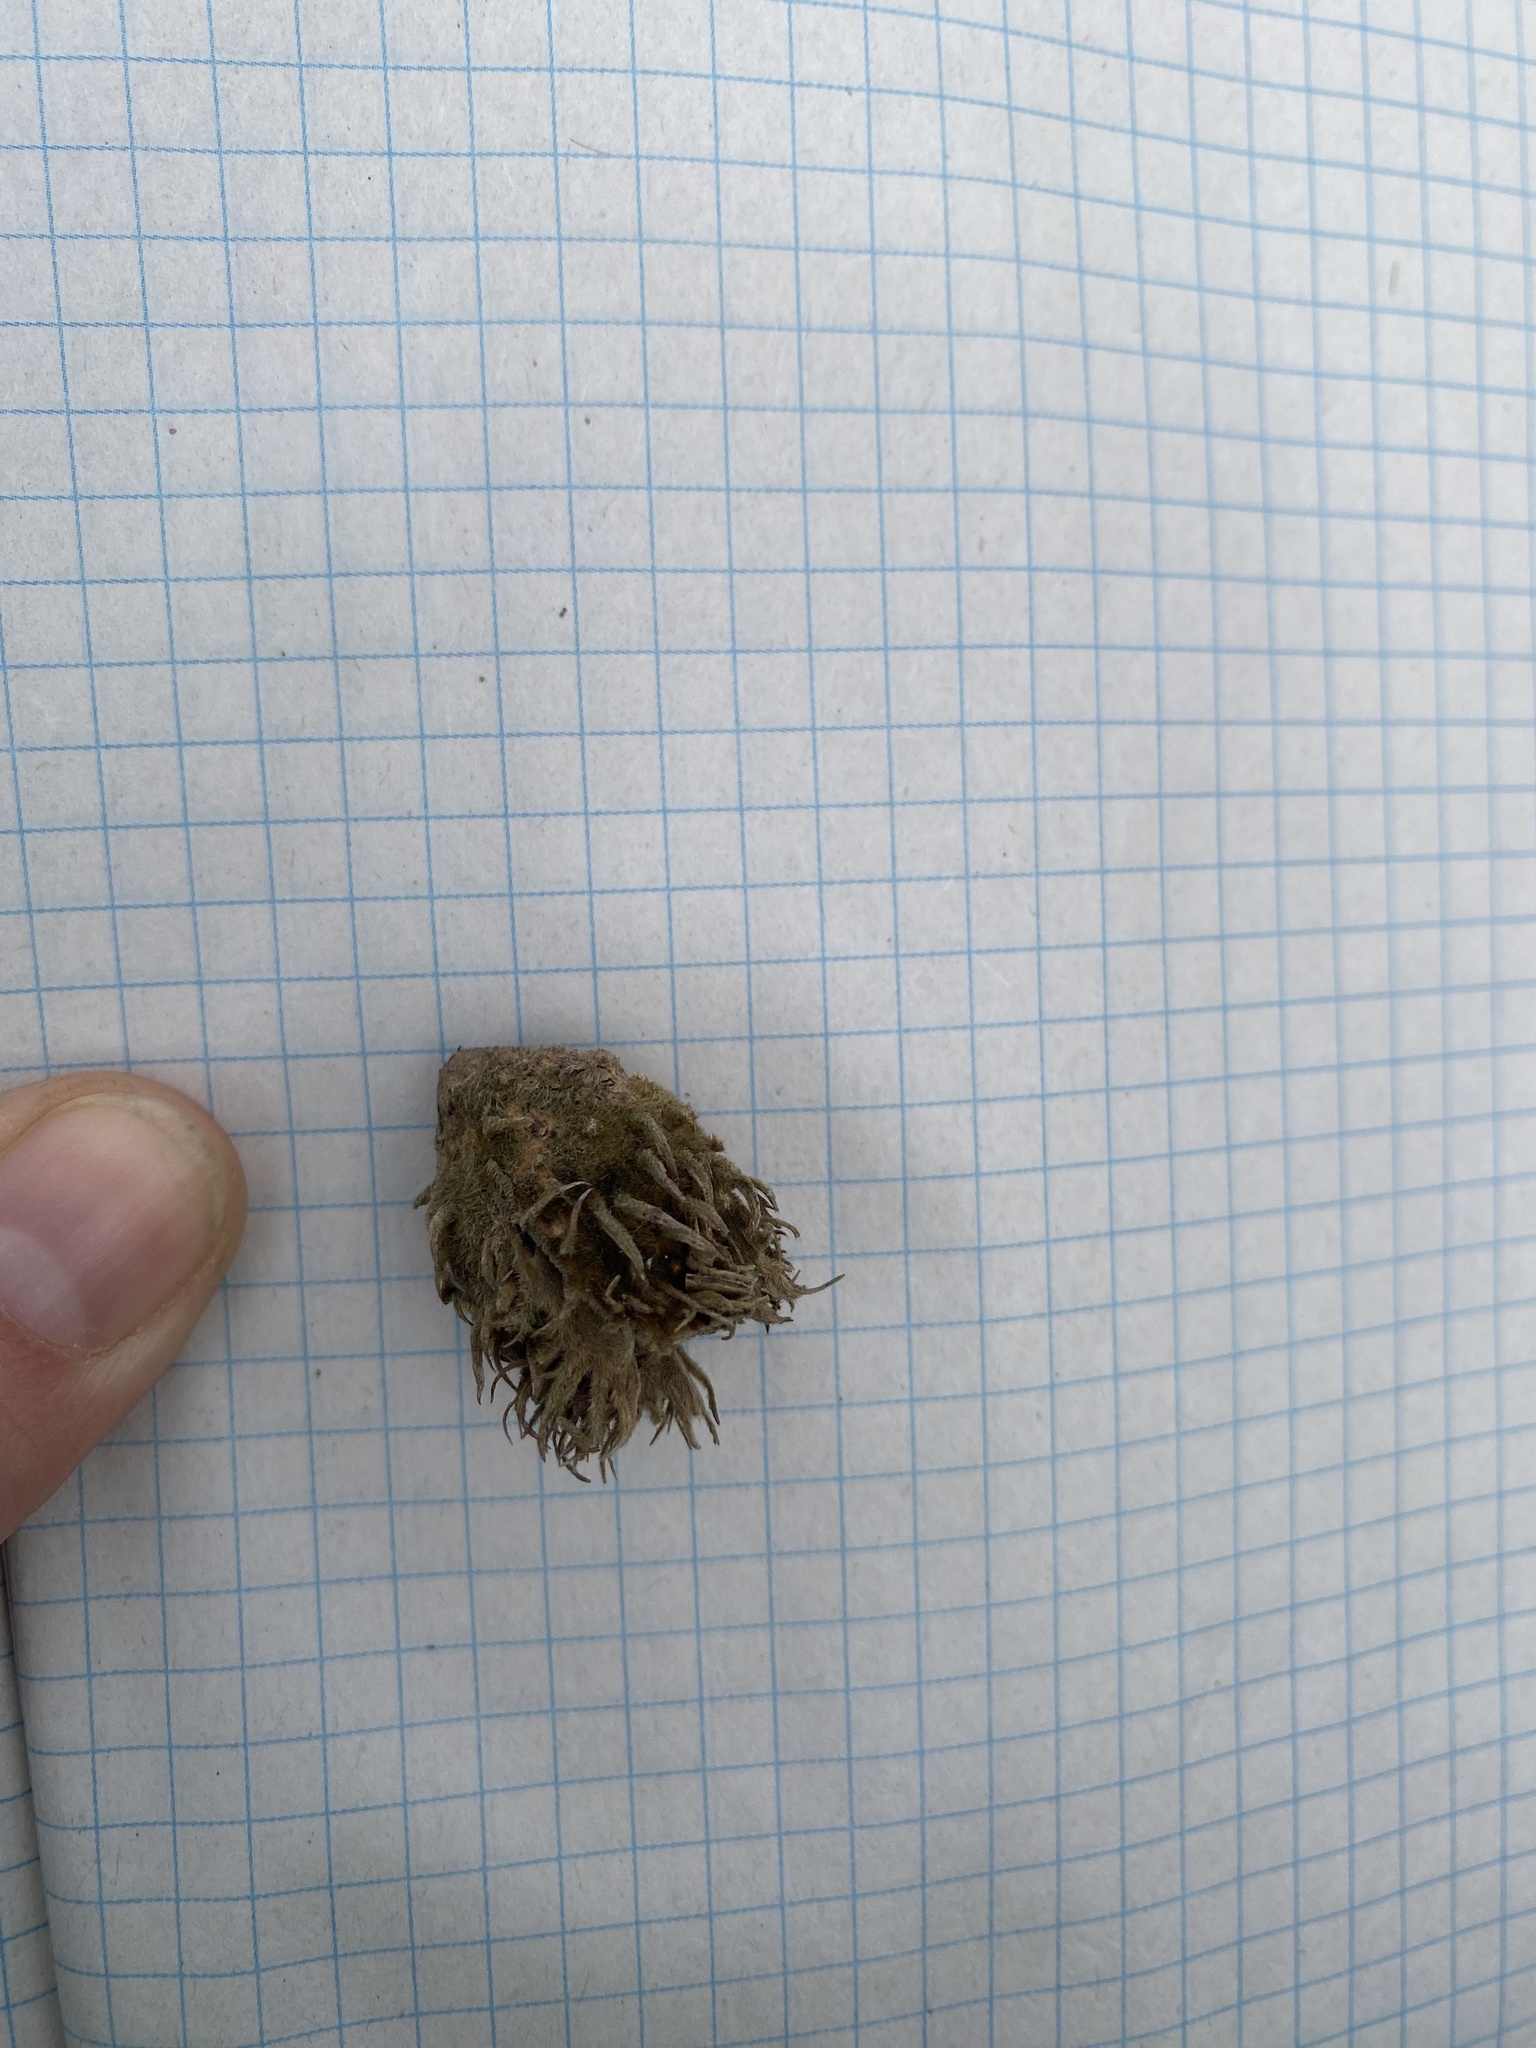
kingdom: Plantae
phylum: Tracheophyta
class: Magnoliopsida
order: Fagales
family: Fagaceae
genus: Fagus
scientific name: Fagus orientalis
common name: Oriental beech
